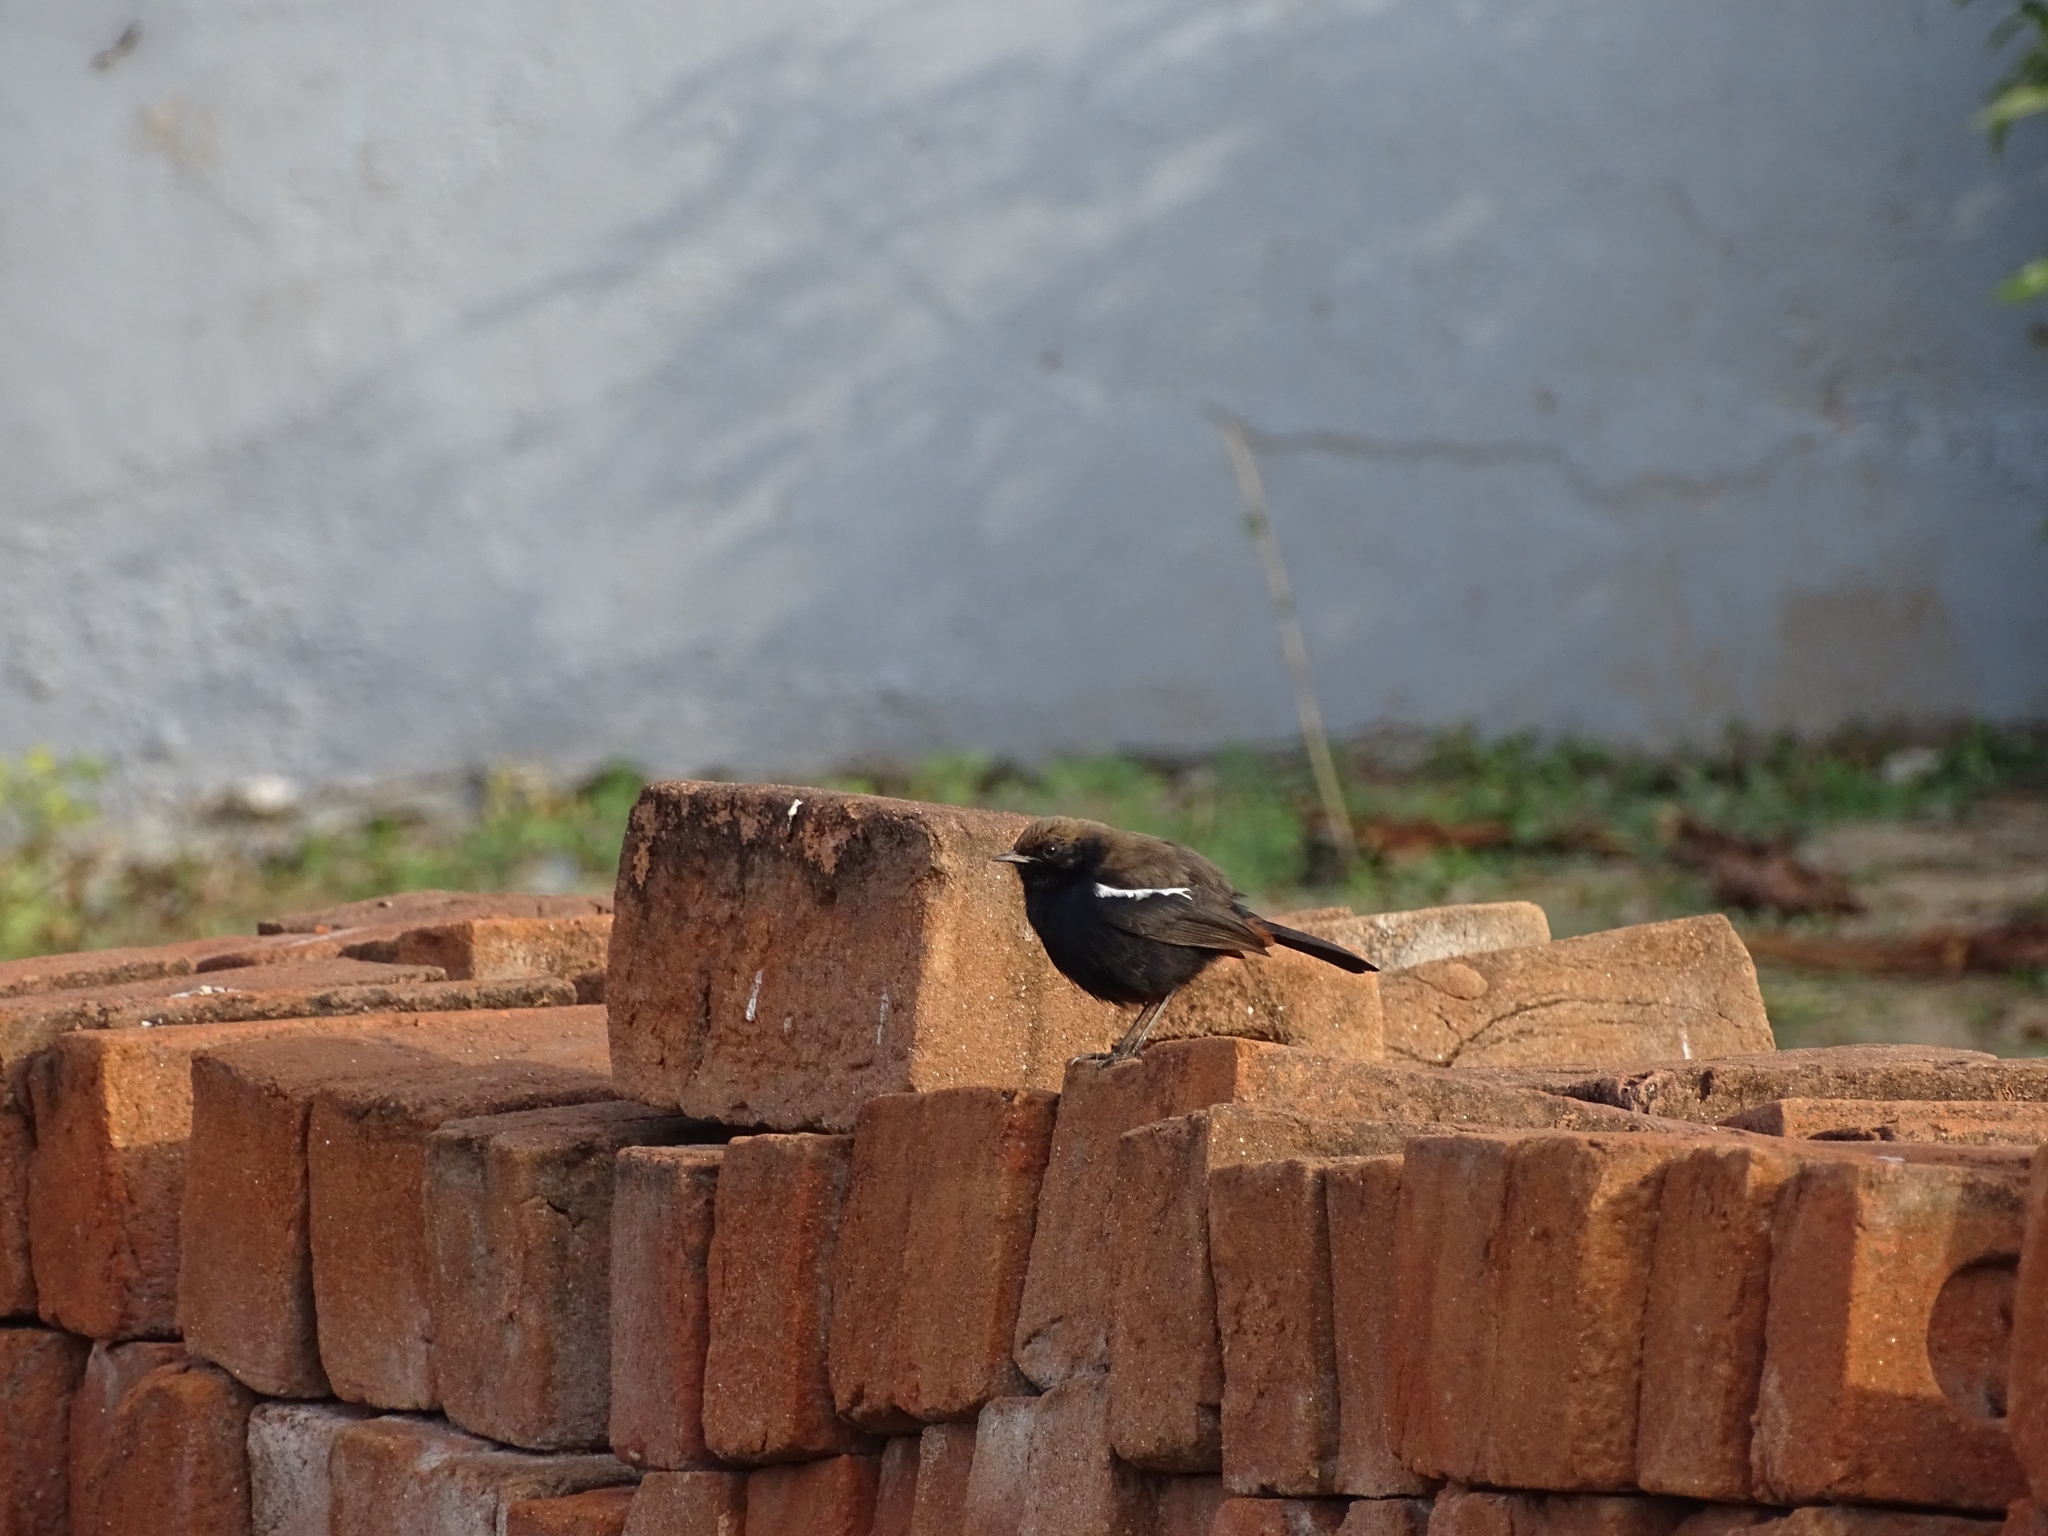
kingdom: Animalia
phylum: Chordata
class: Aves
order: Passeriformes
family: Muscicapidae
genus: Saxicoloides
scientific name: Saxicoloides fulicatus
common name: Indian robin
